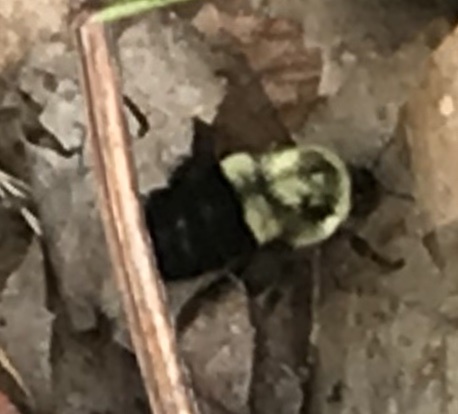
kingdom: Animalia
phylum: Arthropoda
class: Insecta
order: Hymenoptera
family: Apidae
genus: Bombus
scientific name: Bombus impatiens
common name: Common eastern bumble bee
